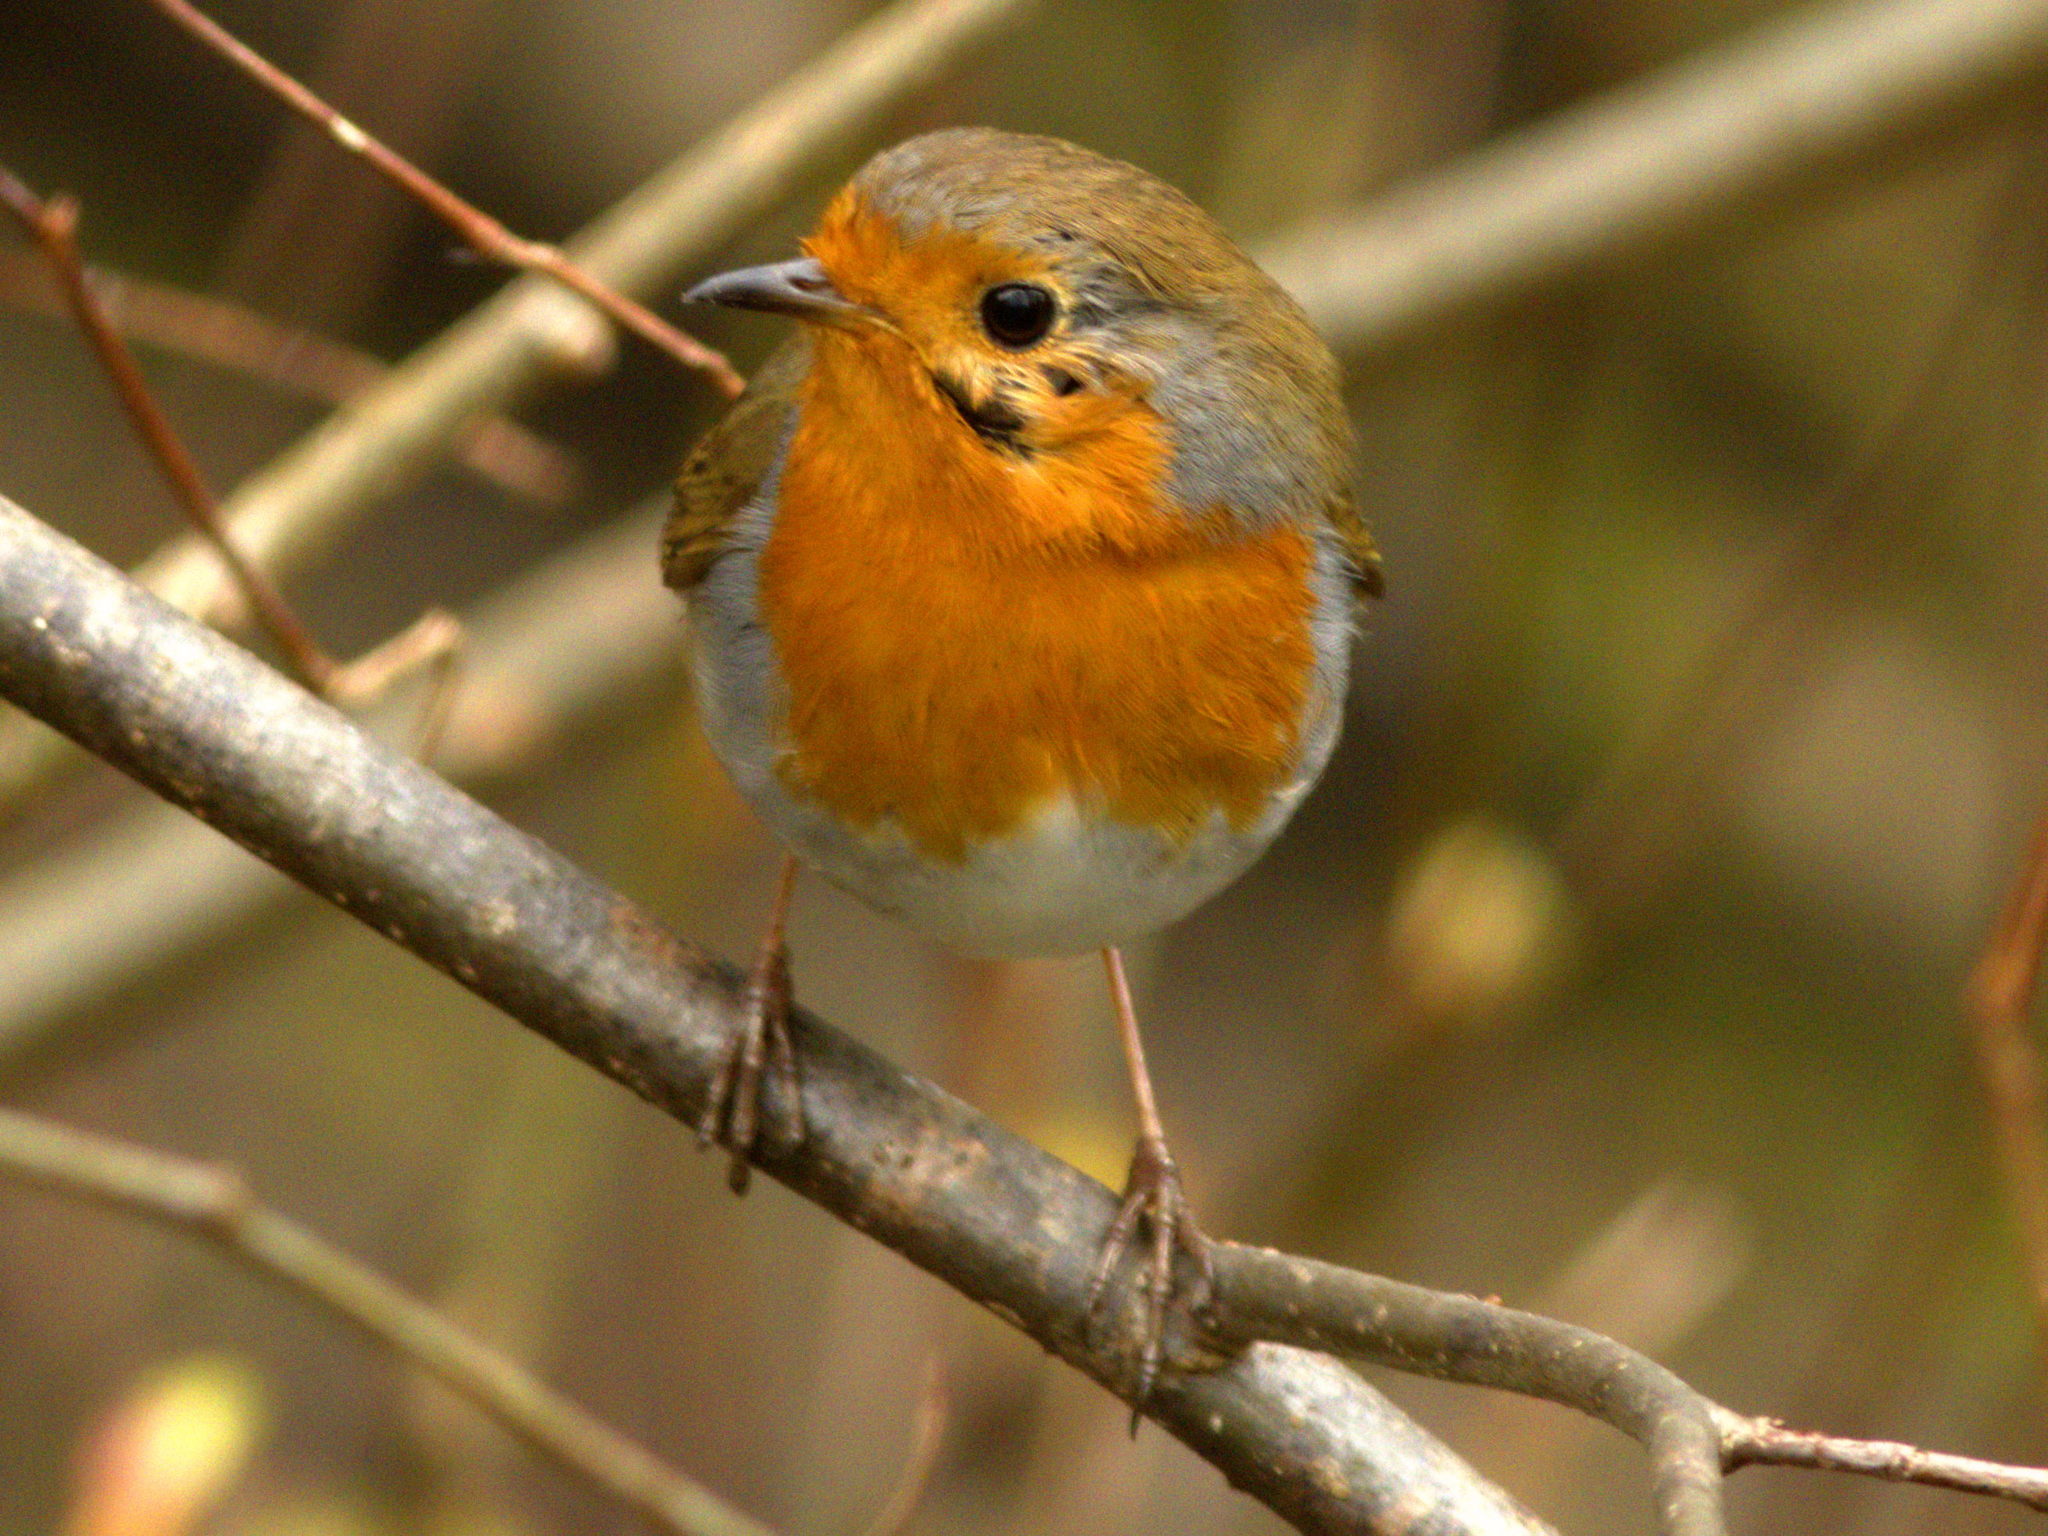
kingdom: Animalia
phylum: Chordata
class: Aves
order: Passeriformes
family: Muscicapidae
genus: Erithacus
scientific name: Erithacus rubecula
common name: European robin
